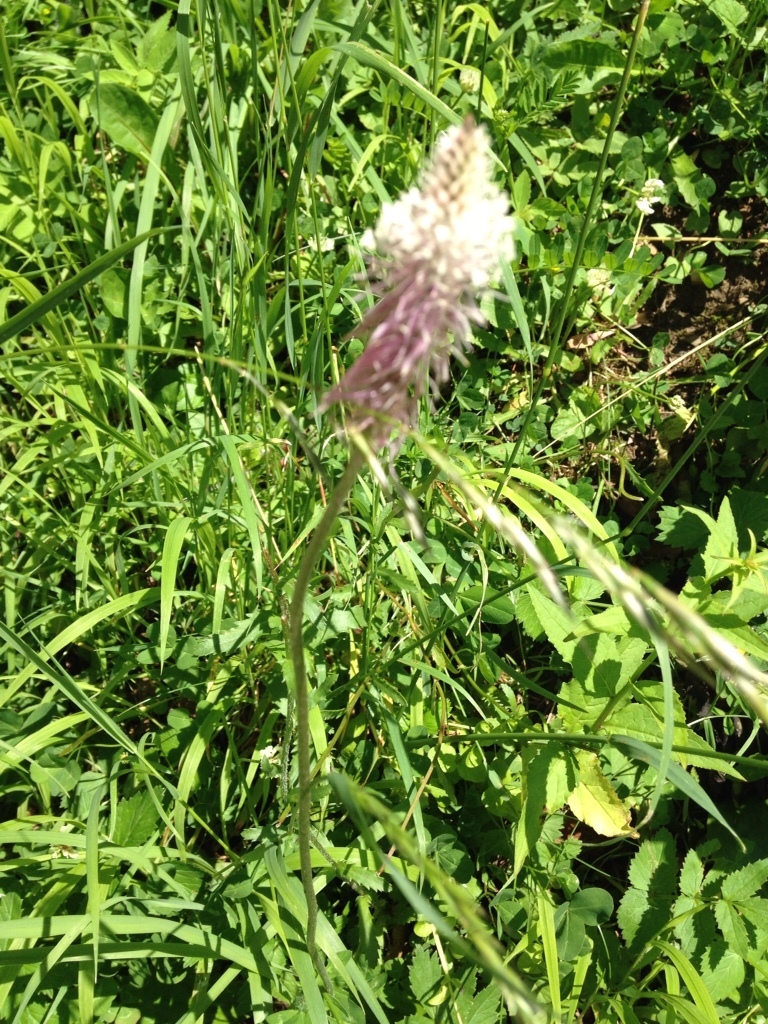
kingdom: Plantae
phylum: Tracheophyta
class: Magnoliopsida
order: Lamiales
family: Plantaginaceae
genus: Plantago
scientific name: Plantago media
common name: Hoary plantain
